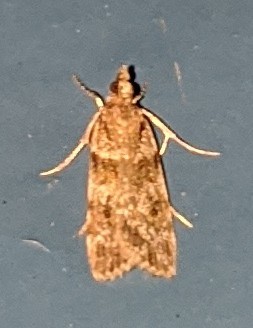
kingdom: Animalia
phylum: Arthropoda
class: Insecta
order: Lepidoptera
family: Crambidae
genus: Scoparia
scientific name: Scoparia biplagialis
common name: Double-striped scoparia moth
